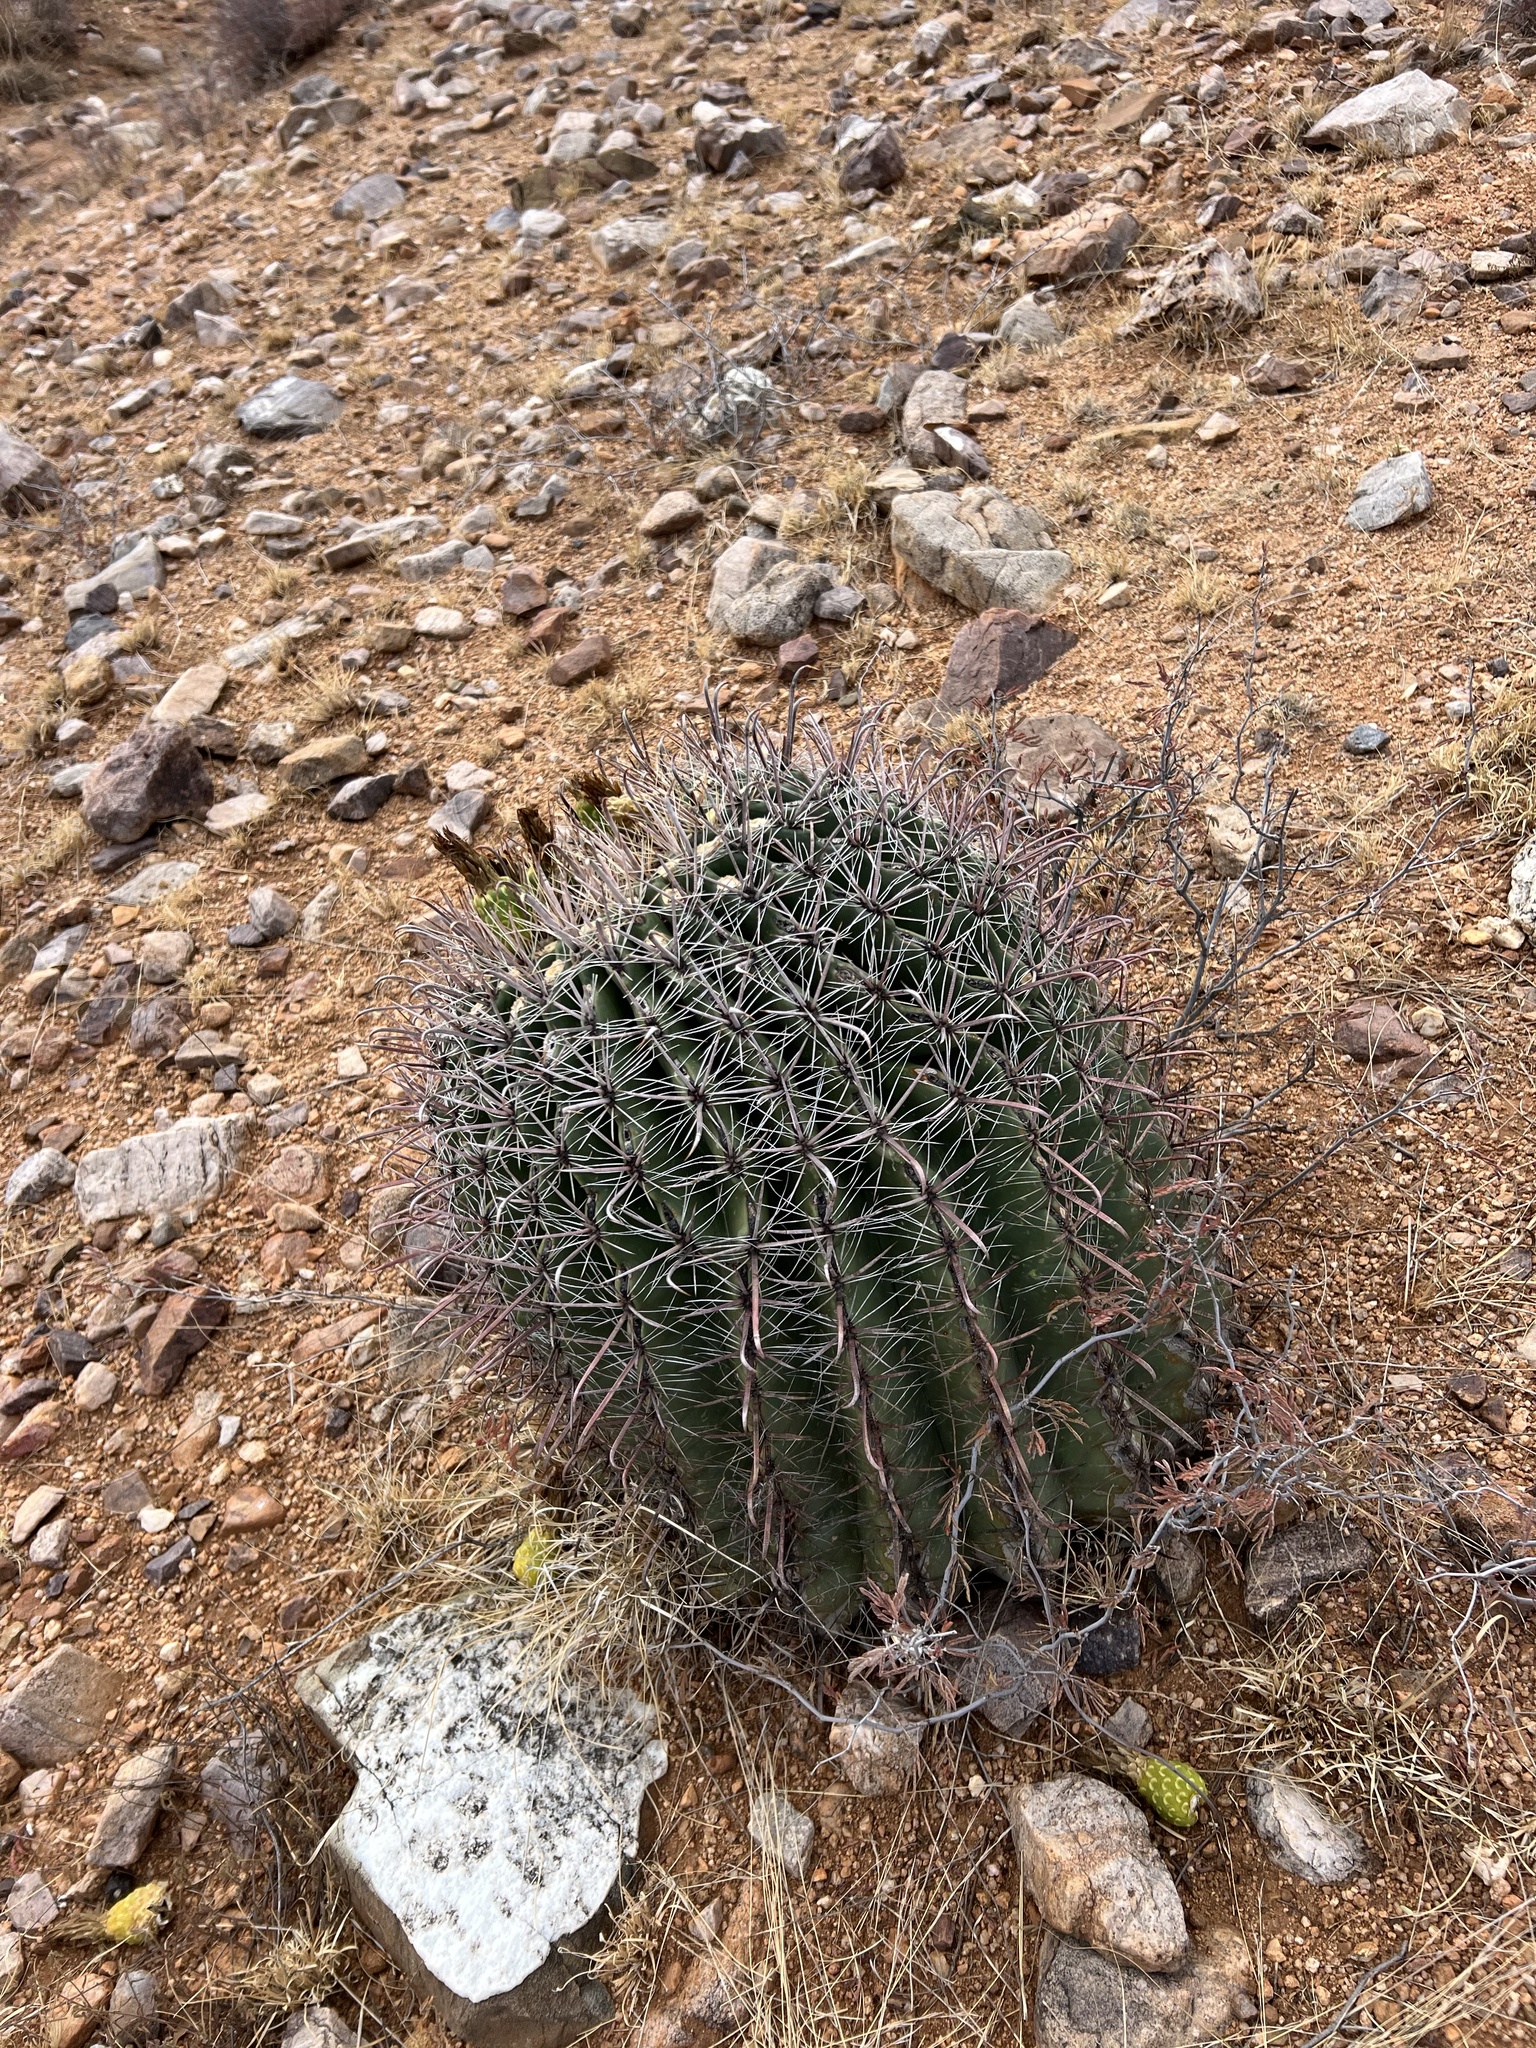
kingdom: Plantae
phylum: Tracheophyta
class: Magnoliopsida
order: Caryophyllales
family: Cactaceae
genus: Ferocactus
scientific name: Ferocactus wislizeni
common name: Candy barrel cactus
